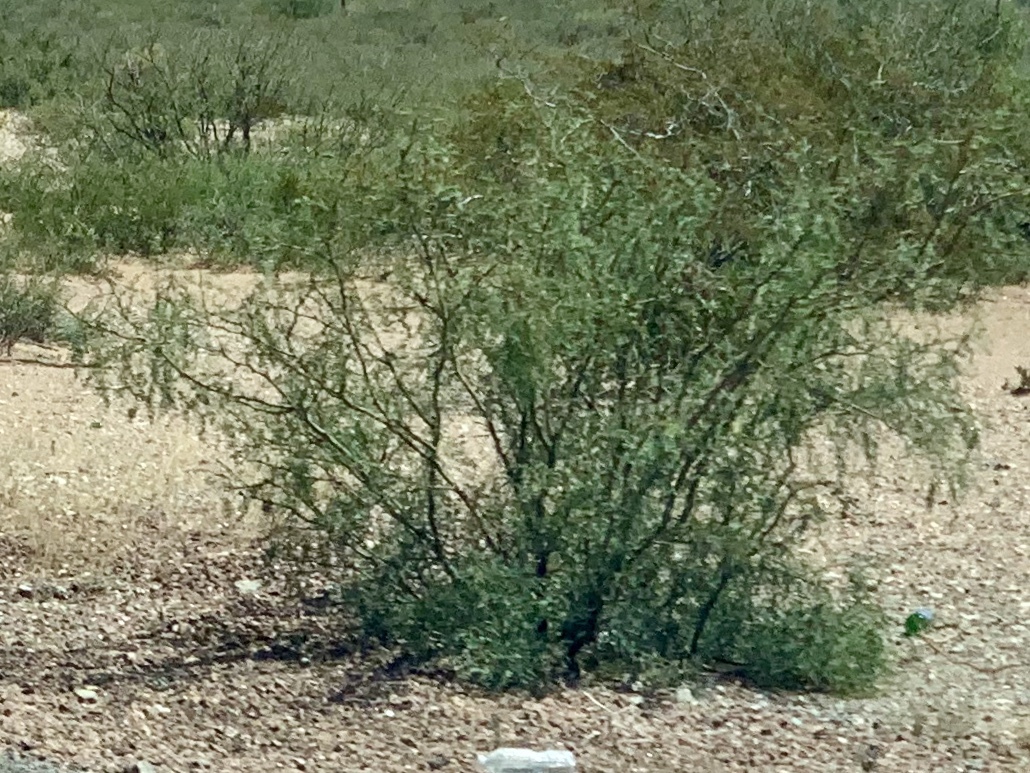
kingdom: Plantae
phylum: Tracheophyta
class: Magnoliopsida
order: Fabales
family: Fabaceae
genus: Prosopis
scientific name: Prosopis glandulosa
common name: Honey mesquite
